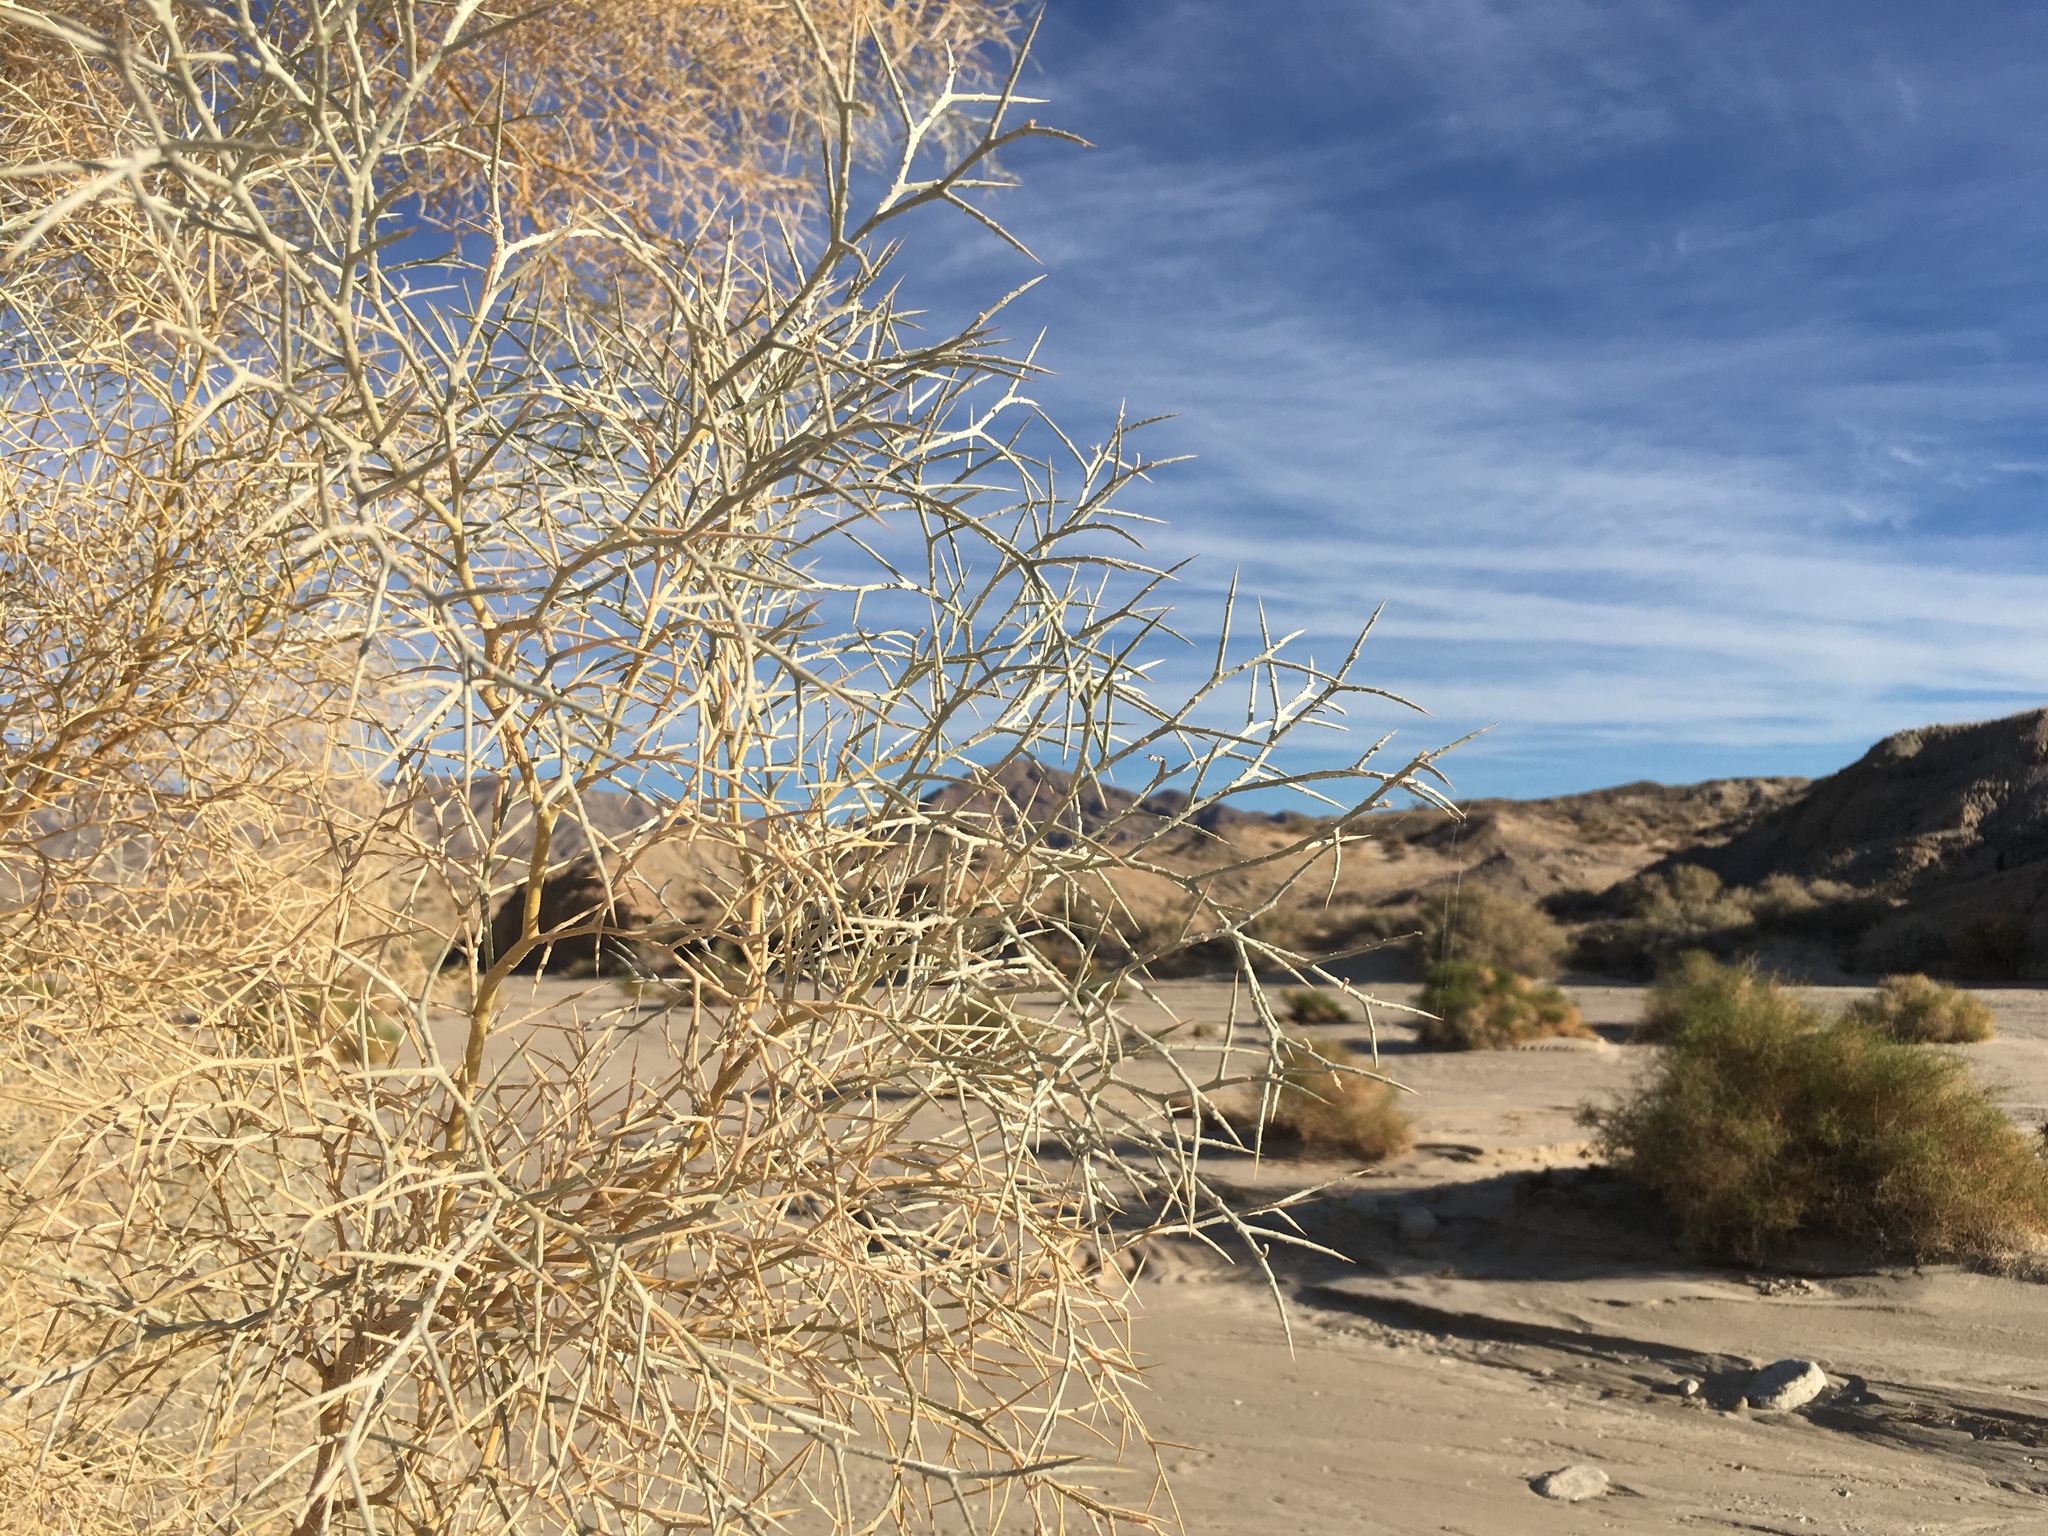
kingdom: Plantae
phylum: Tracheophyta
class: Magnoliopsida
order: Fabales
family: Fabaceae
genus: Psorothamnus
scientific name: Psorothamnus spinosus
